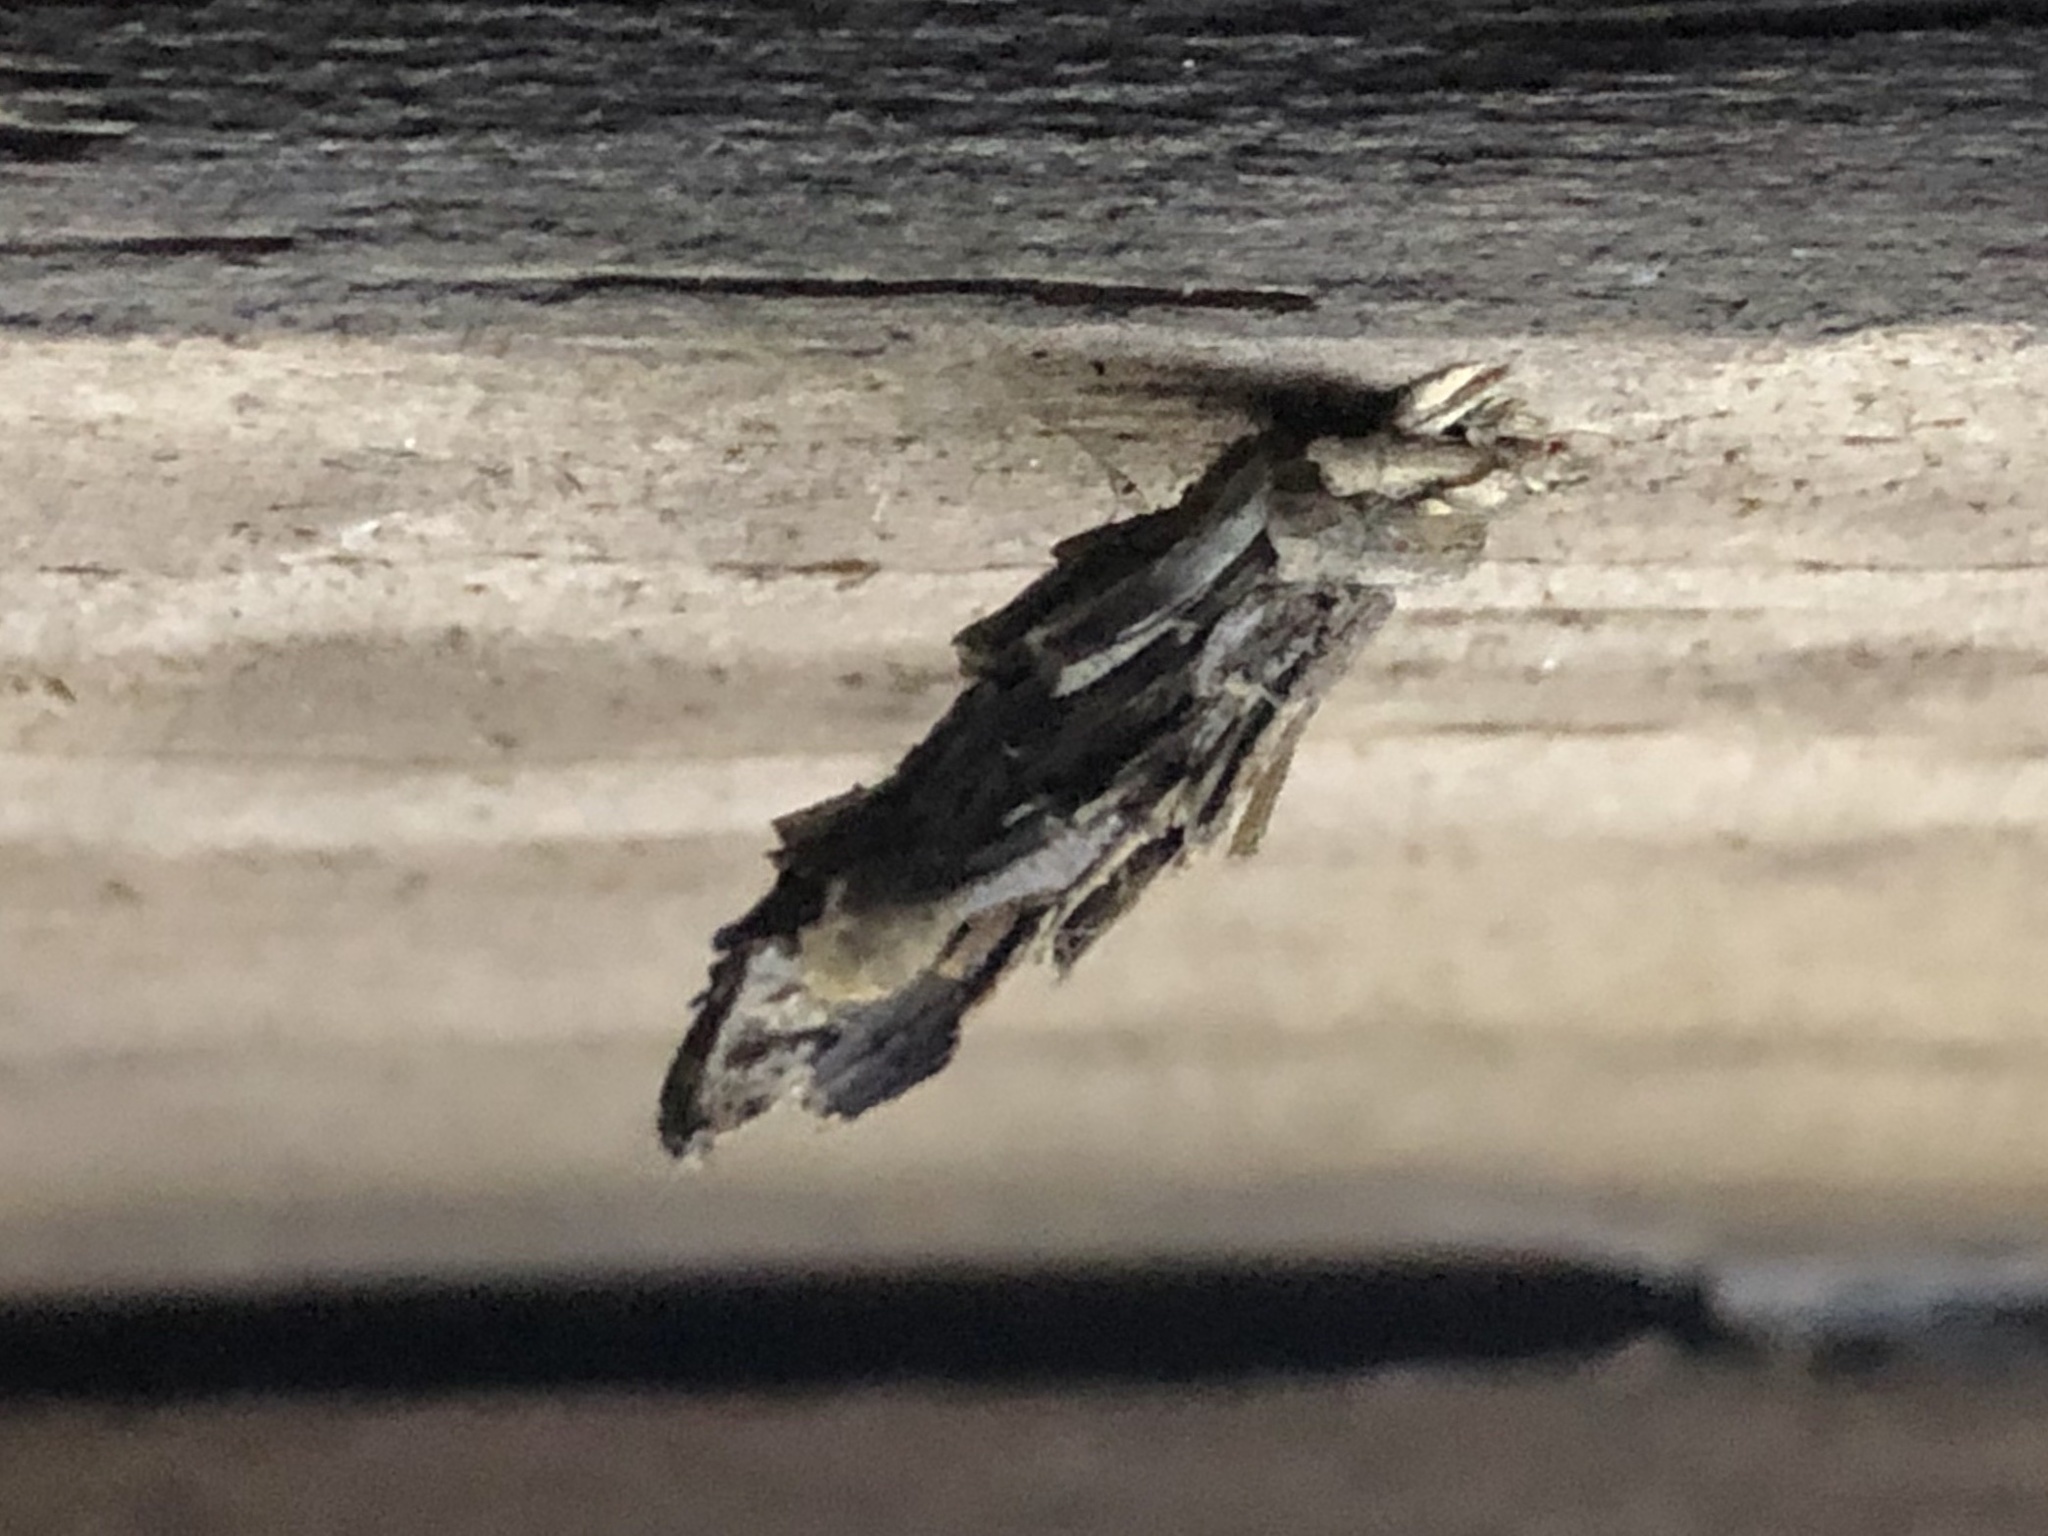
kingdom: Animalia
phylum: Arthropoda
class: Insecta
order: Lepidoptera
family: Psychidae
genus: Psyche
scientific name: Psyche casta
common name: Common sweep
